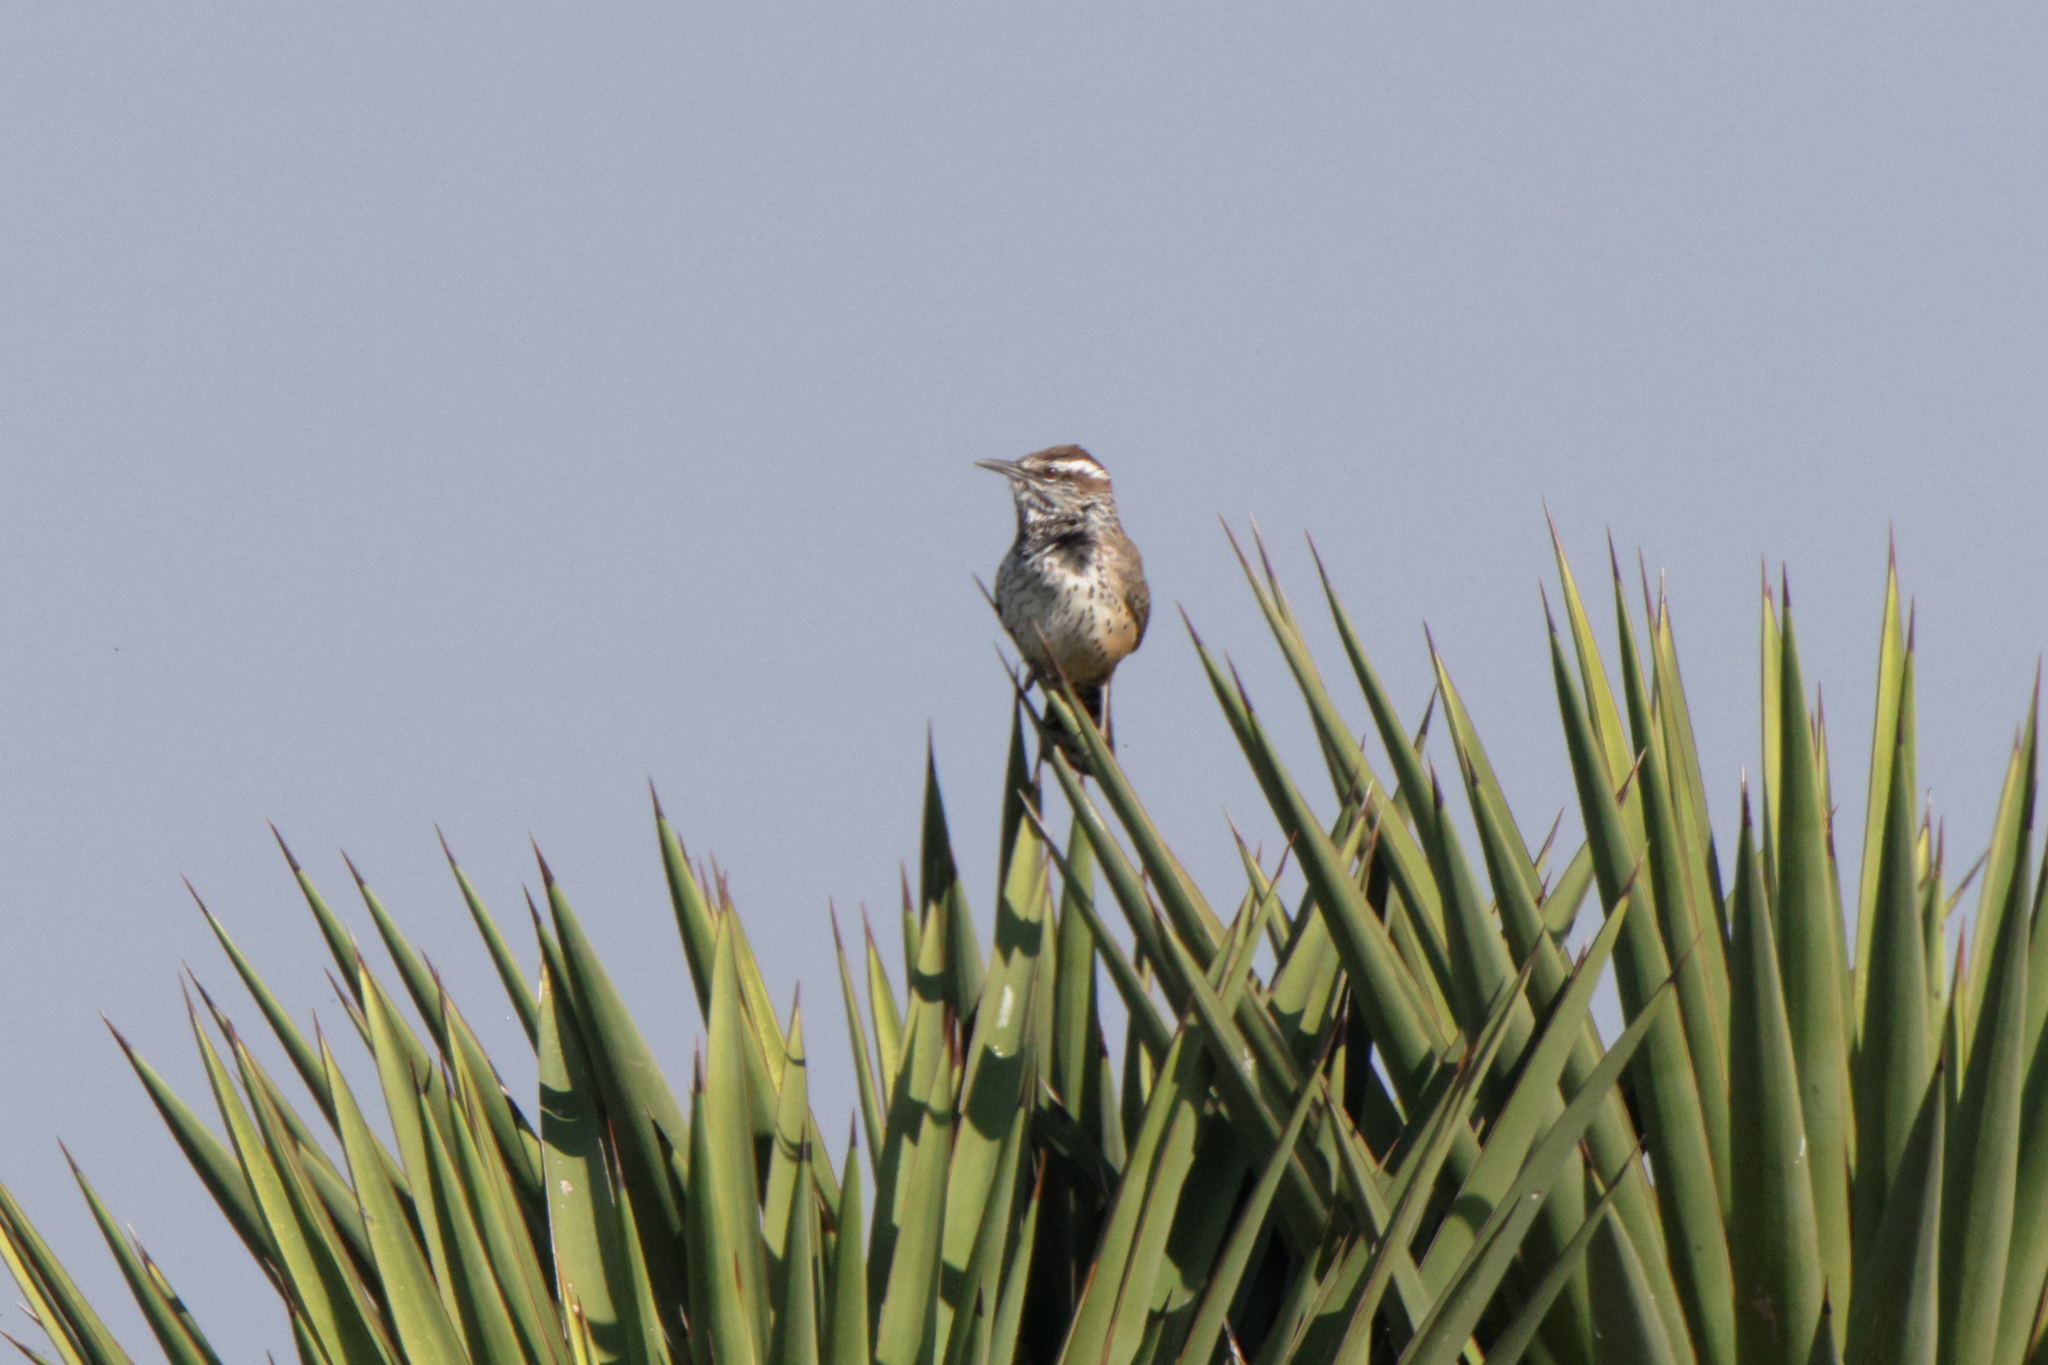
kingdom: Animalia
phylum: Chordata
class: Aves
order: Passeriformes
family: Troglodytidae
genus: Campylorhynchus
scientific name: Campylorhynchus brunneicapillus
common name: Cactus wren
